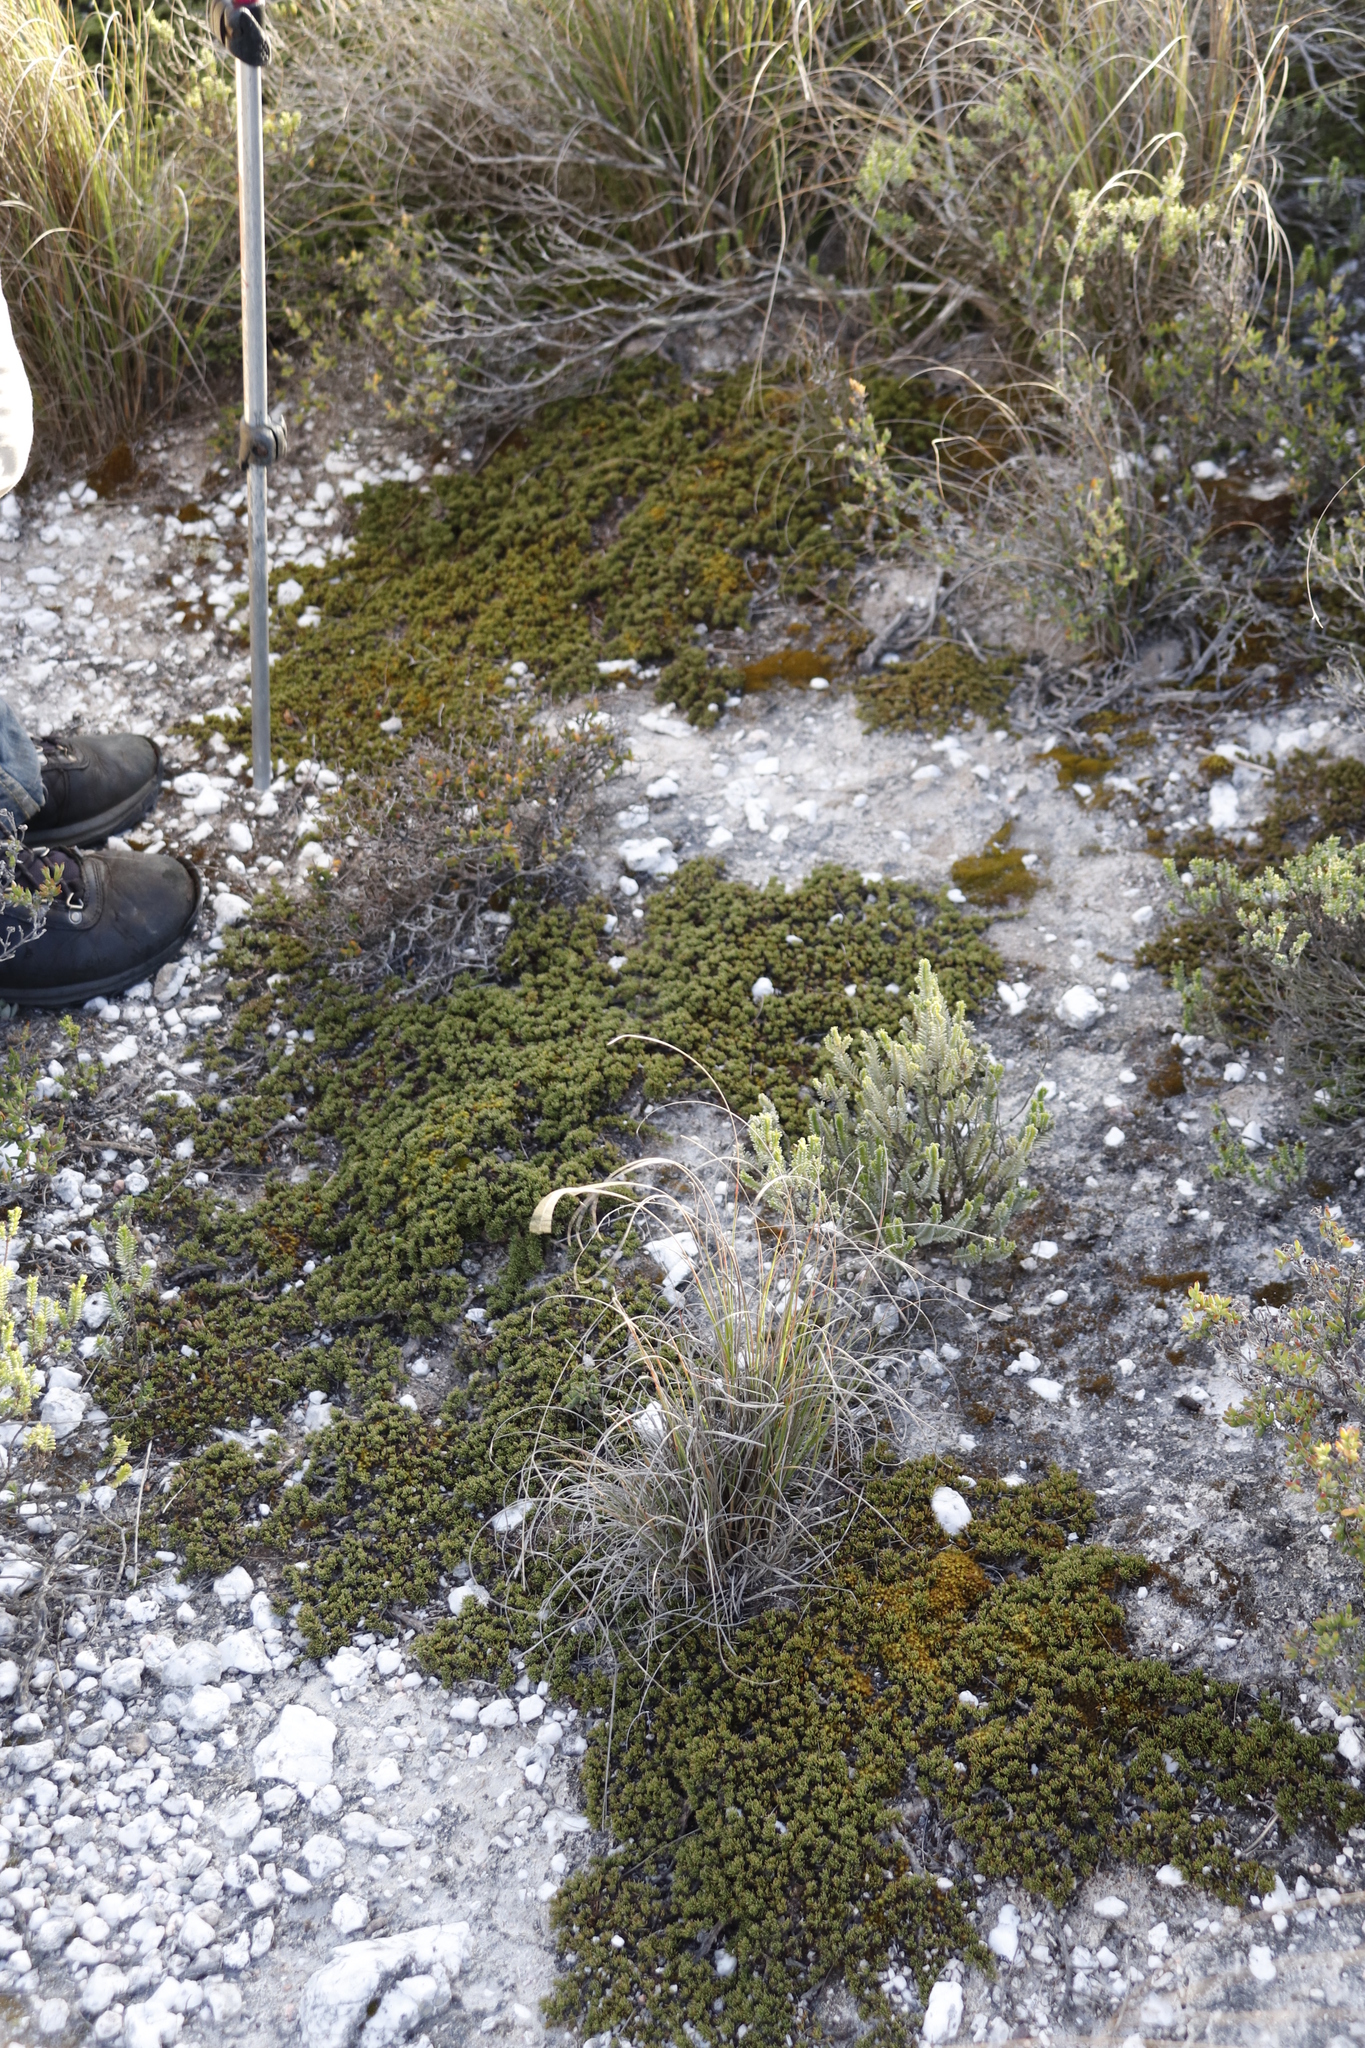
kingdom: Plantae
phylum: Tracheophyta
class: Magnoliopsida
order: Fabales
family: Fabaceae
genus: Aspalathus
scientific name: Aspalathus quartzicola
